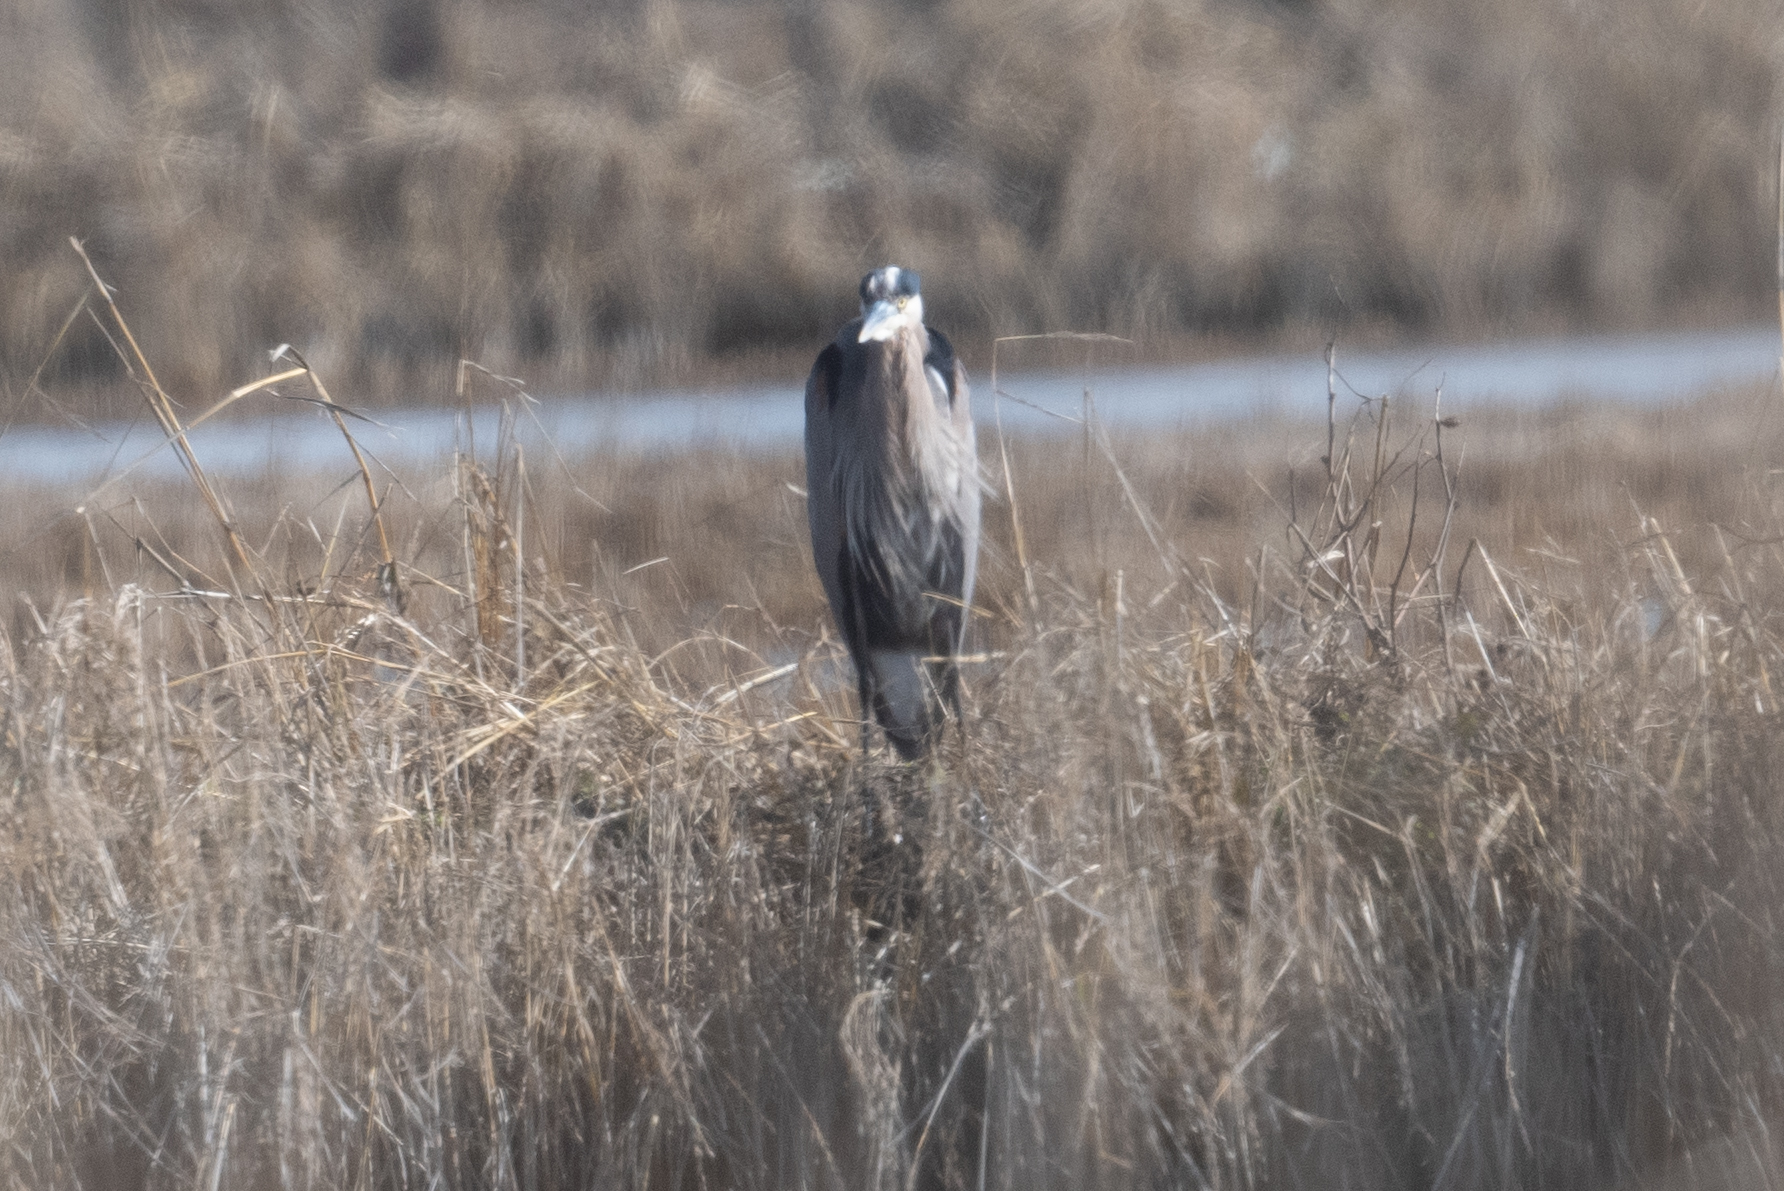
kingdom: Animalia
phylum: Chordata
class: Aves
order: Pelecaniformes
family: Ardeidae
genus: Ardea
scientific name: Ardea herodias
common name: Great blue heron
